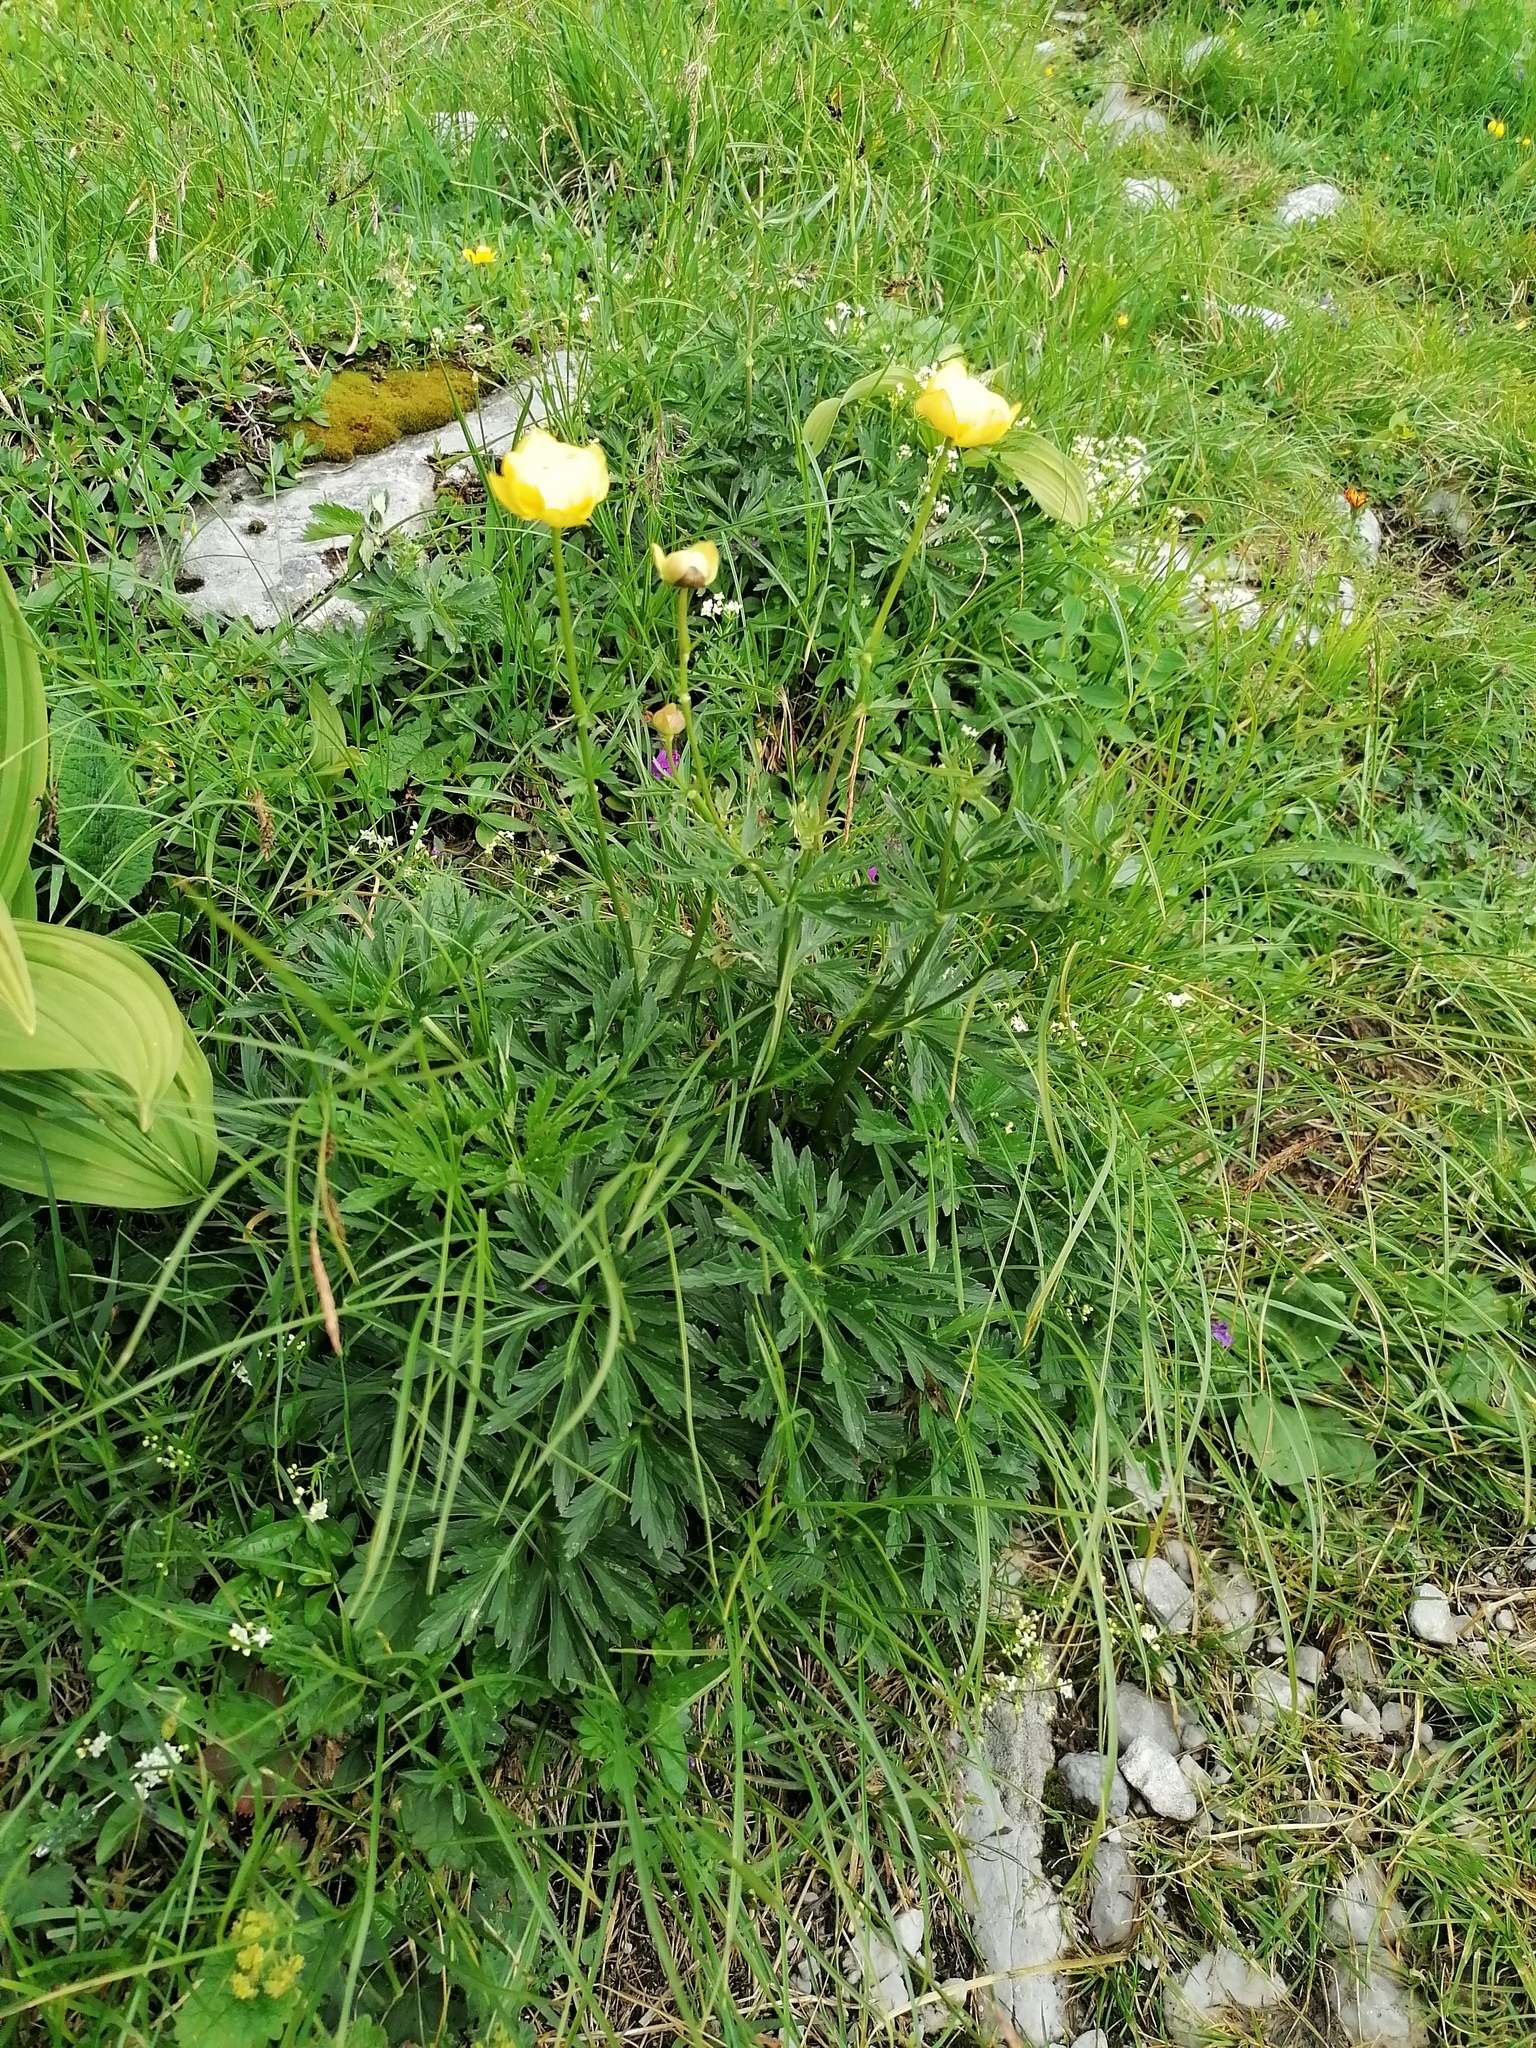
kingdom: Plantae
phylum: Tracheophyta
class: Magnoliopsida
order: Ranunculales
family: Ranunculaceae
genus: Trollius
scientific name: Trollius europaeus
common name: European globeflower
